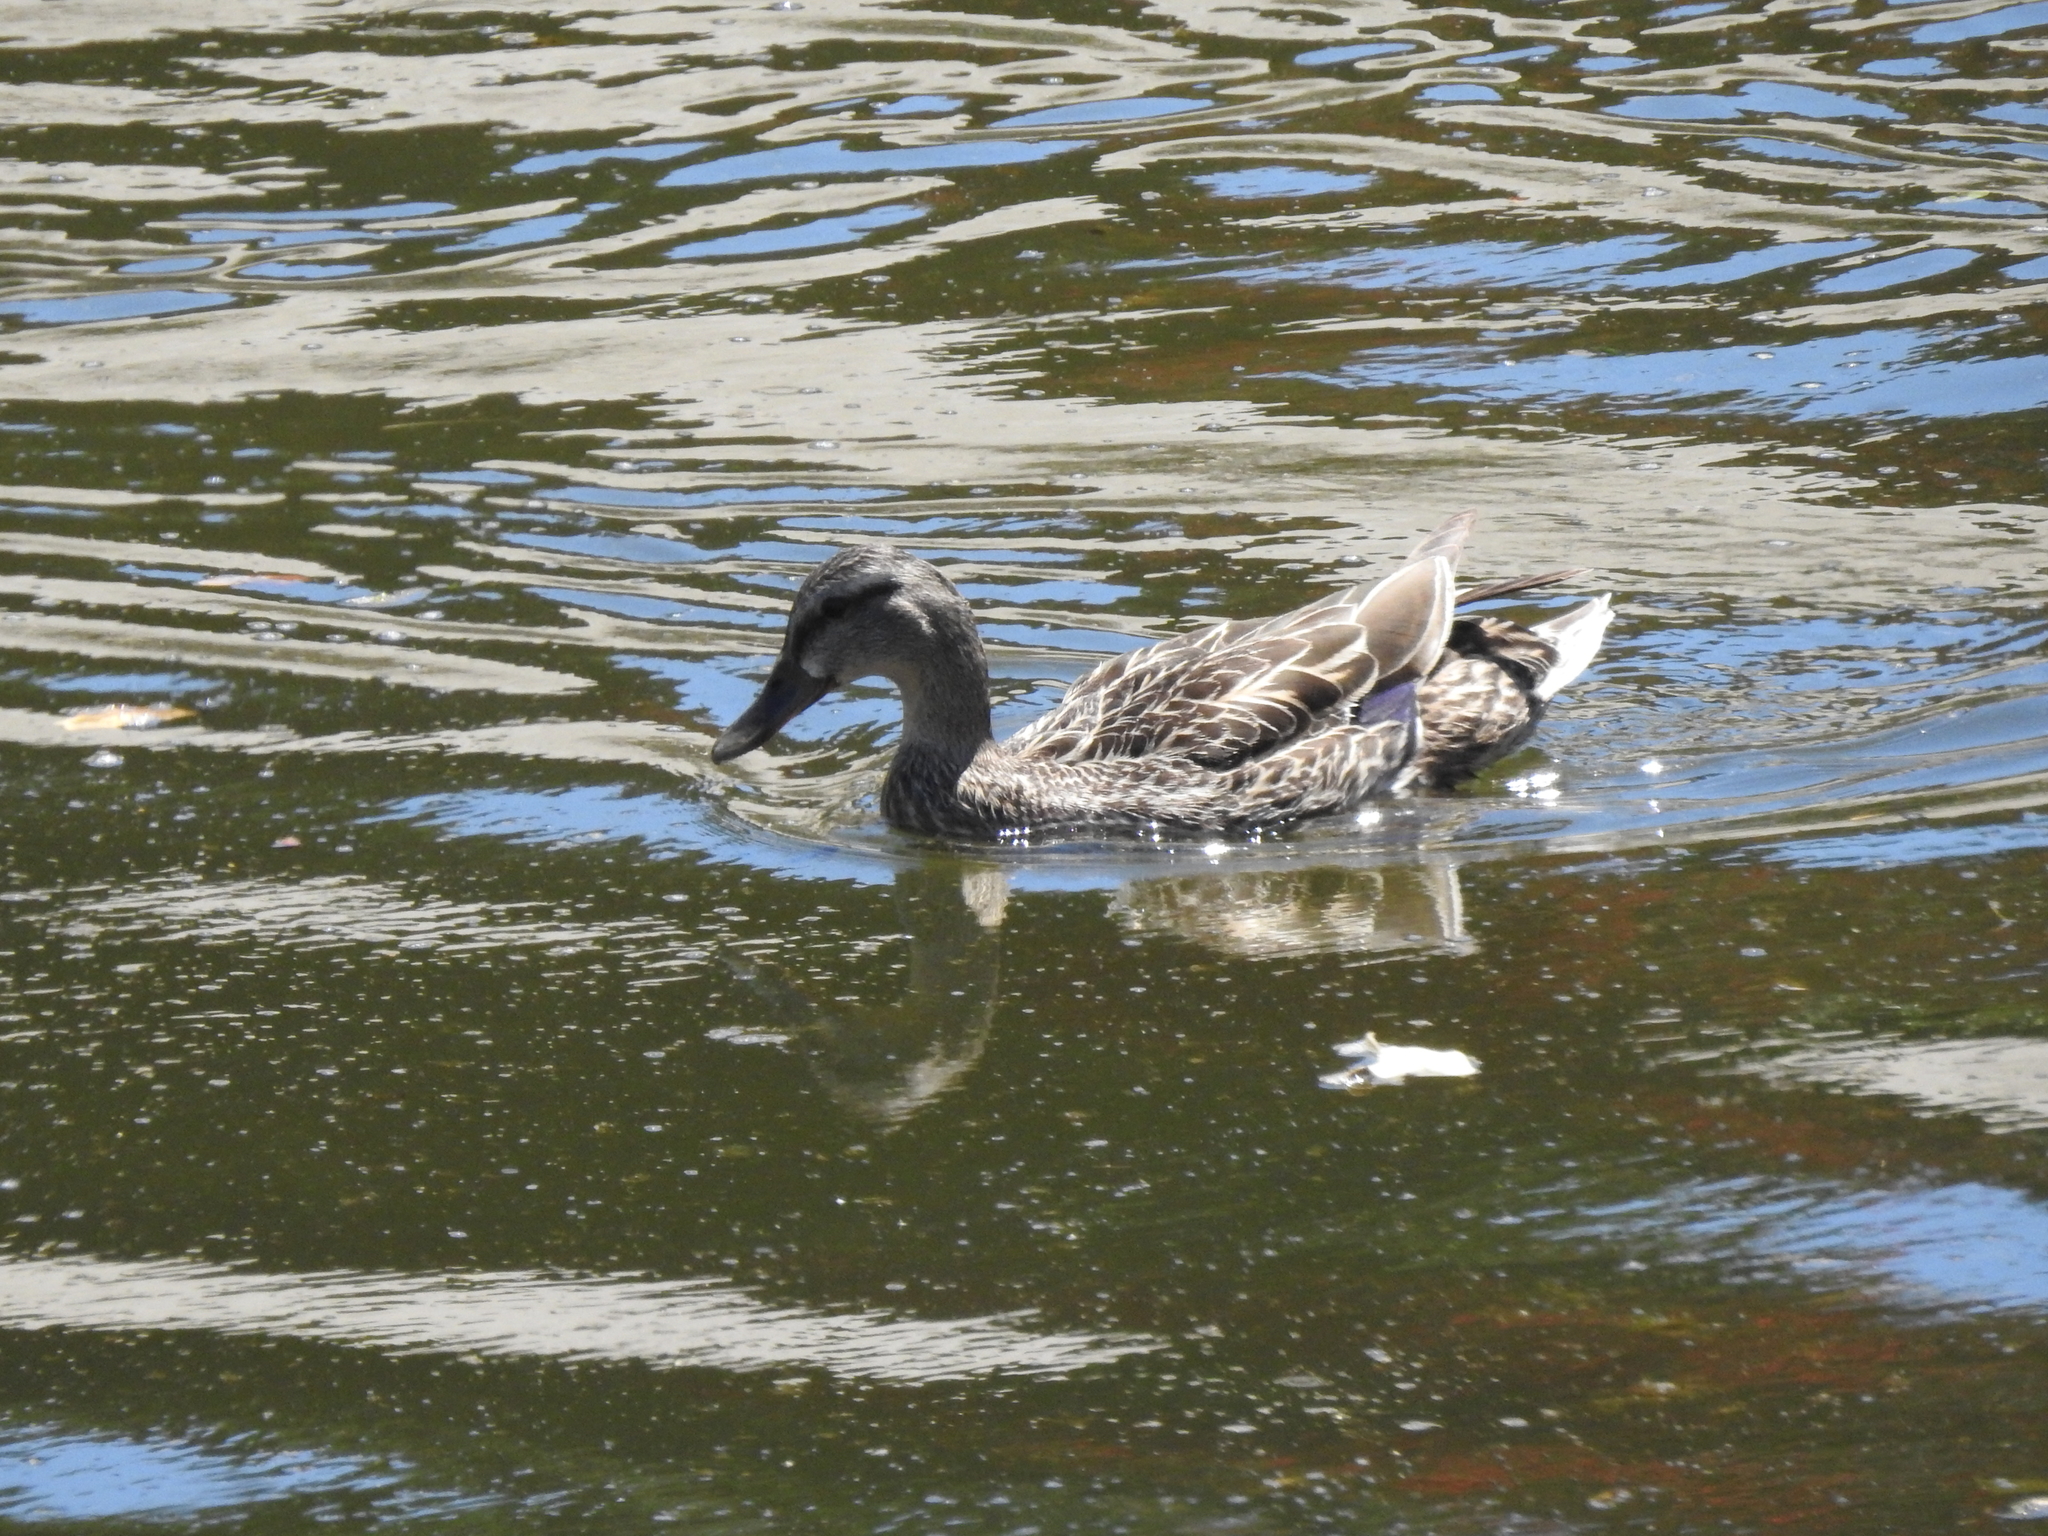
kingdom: Animalia
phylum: Chordata
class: Aves
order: Anseriformes
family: Anatidae
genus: Anas
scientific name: Anas platyrhynchos
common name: Mallard
